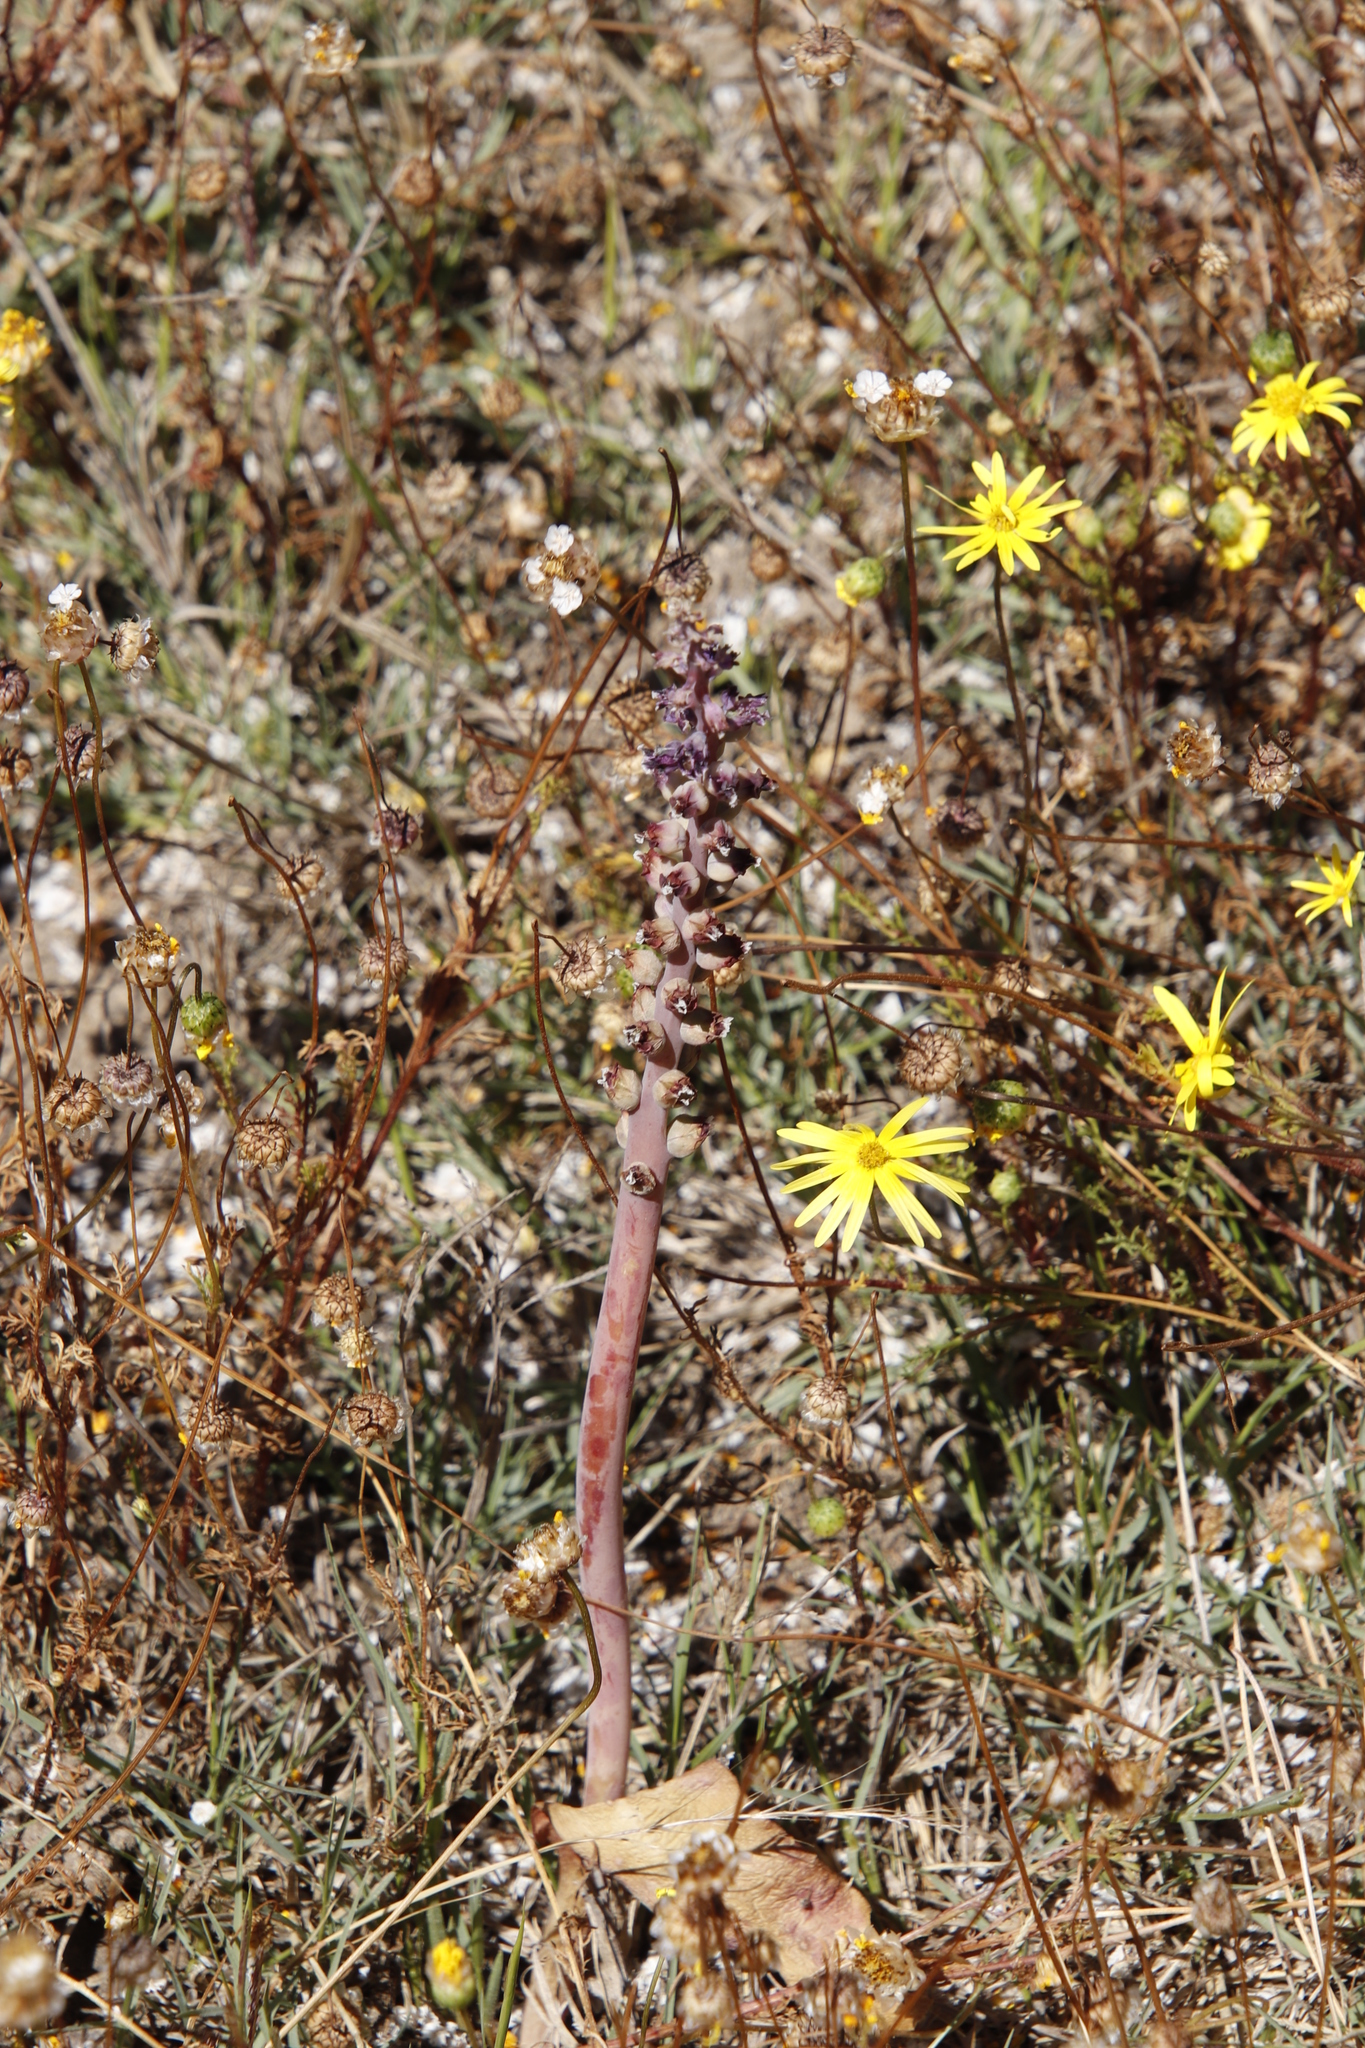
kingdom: Plantae
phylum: Tracheophyta
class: Liliopsida
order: Asparagales
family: Asparagaceae
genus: Lachenalia
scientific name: Lachenalia membranacea
